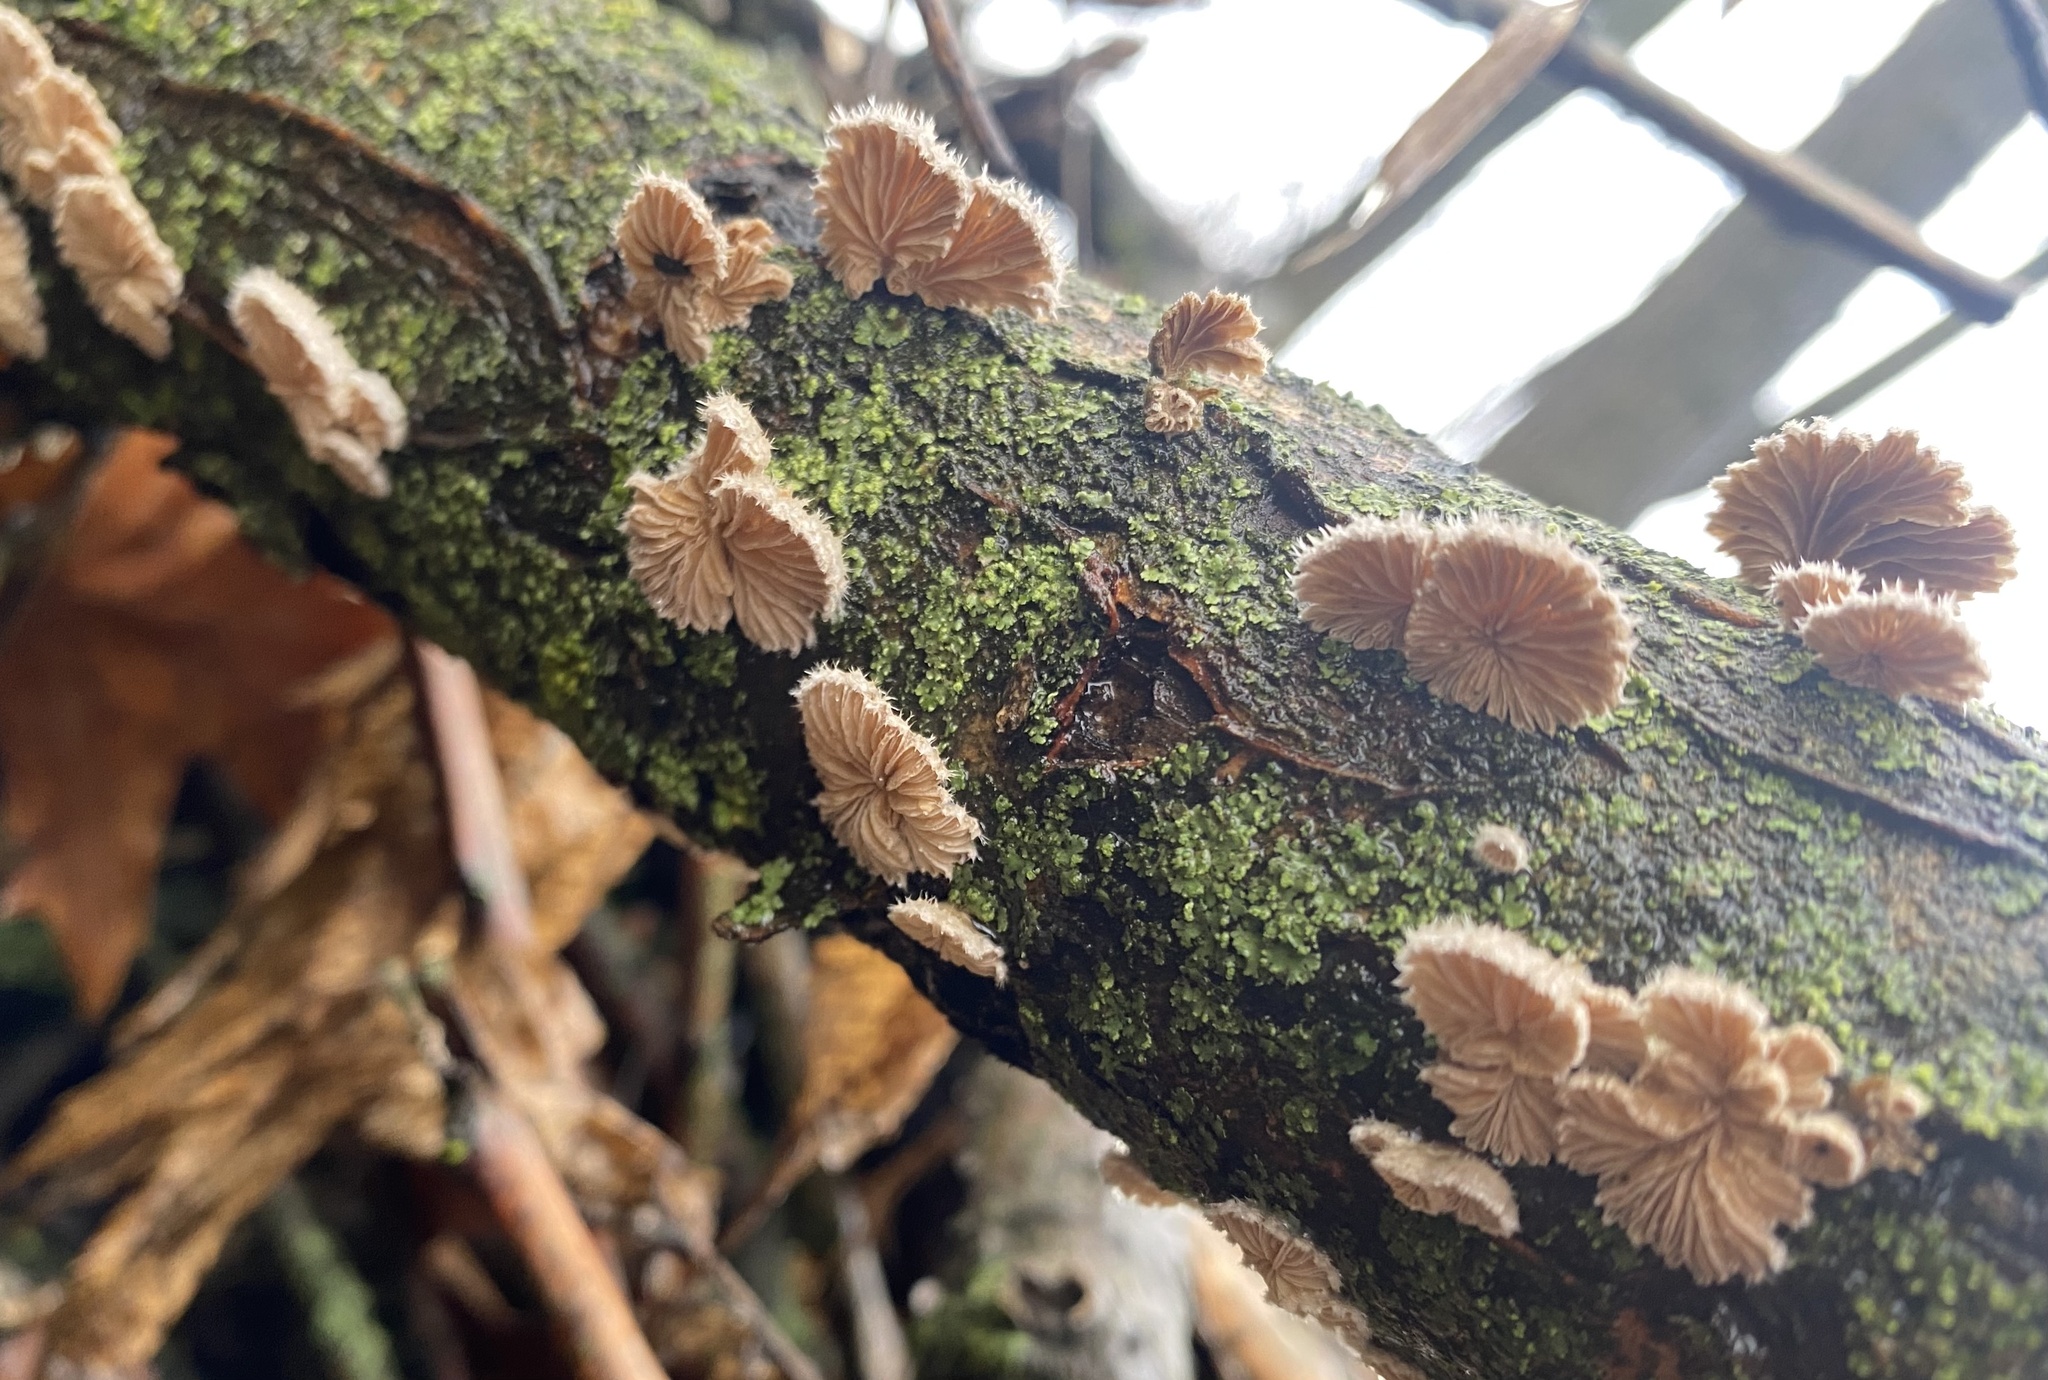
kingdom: Fungi
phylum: Basidiomycota
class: Agaricomycetes
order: Agaricales
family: Schizophyllaceae
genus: Schizophyllum
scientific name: Schizophyllum commune
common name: Common porecrust
